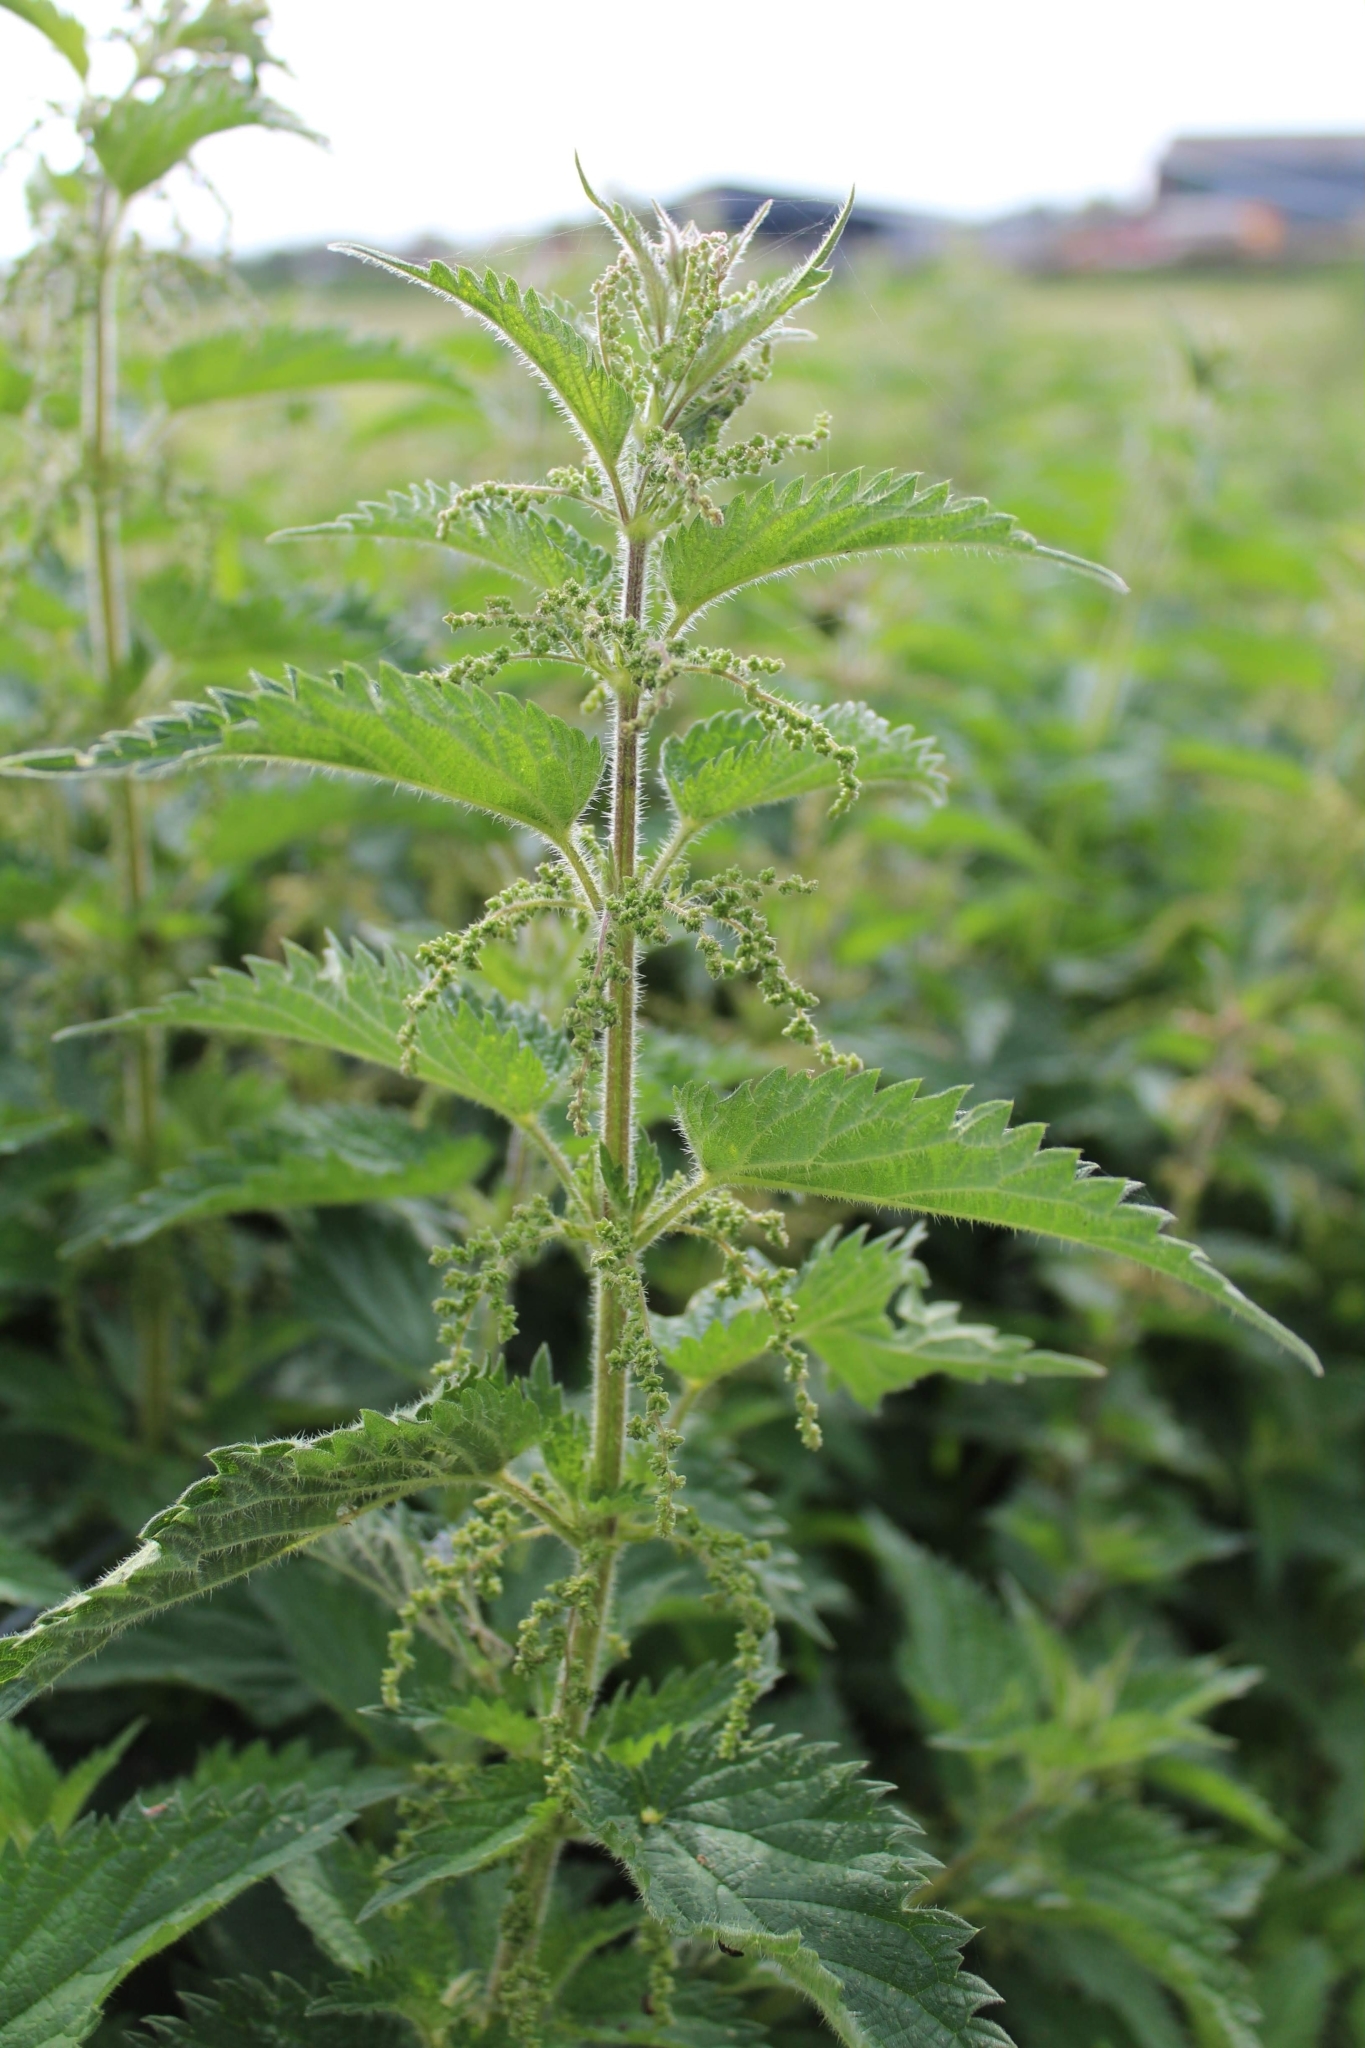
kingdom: Plantae
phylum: Tracheophyta
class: Magnoliopsida
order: Rosales
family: Urticaceae
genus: Urtica
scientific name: Urtica dioica
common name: Common nettle
